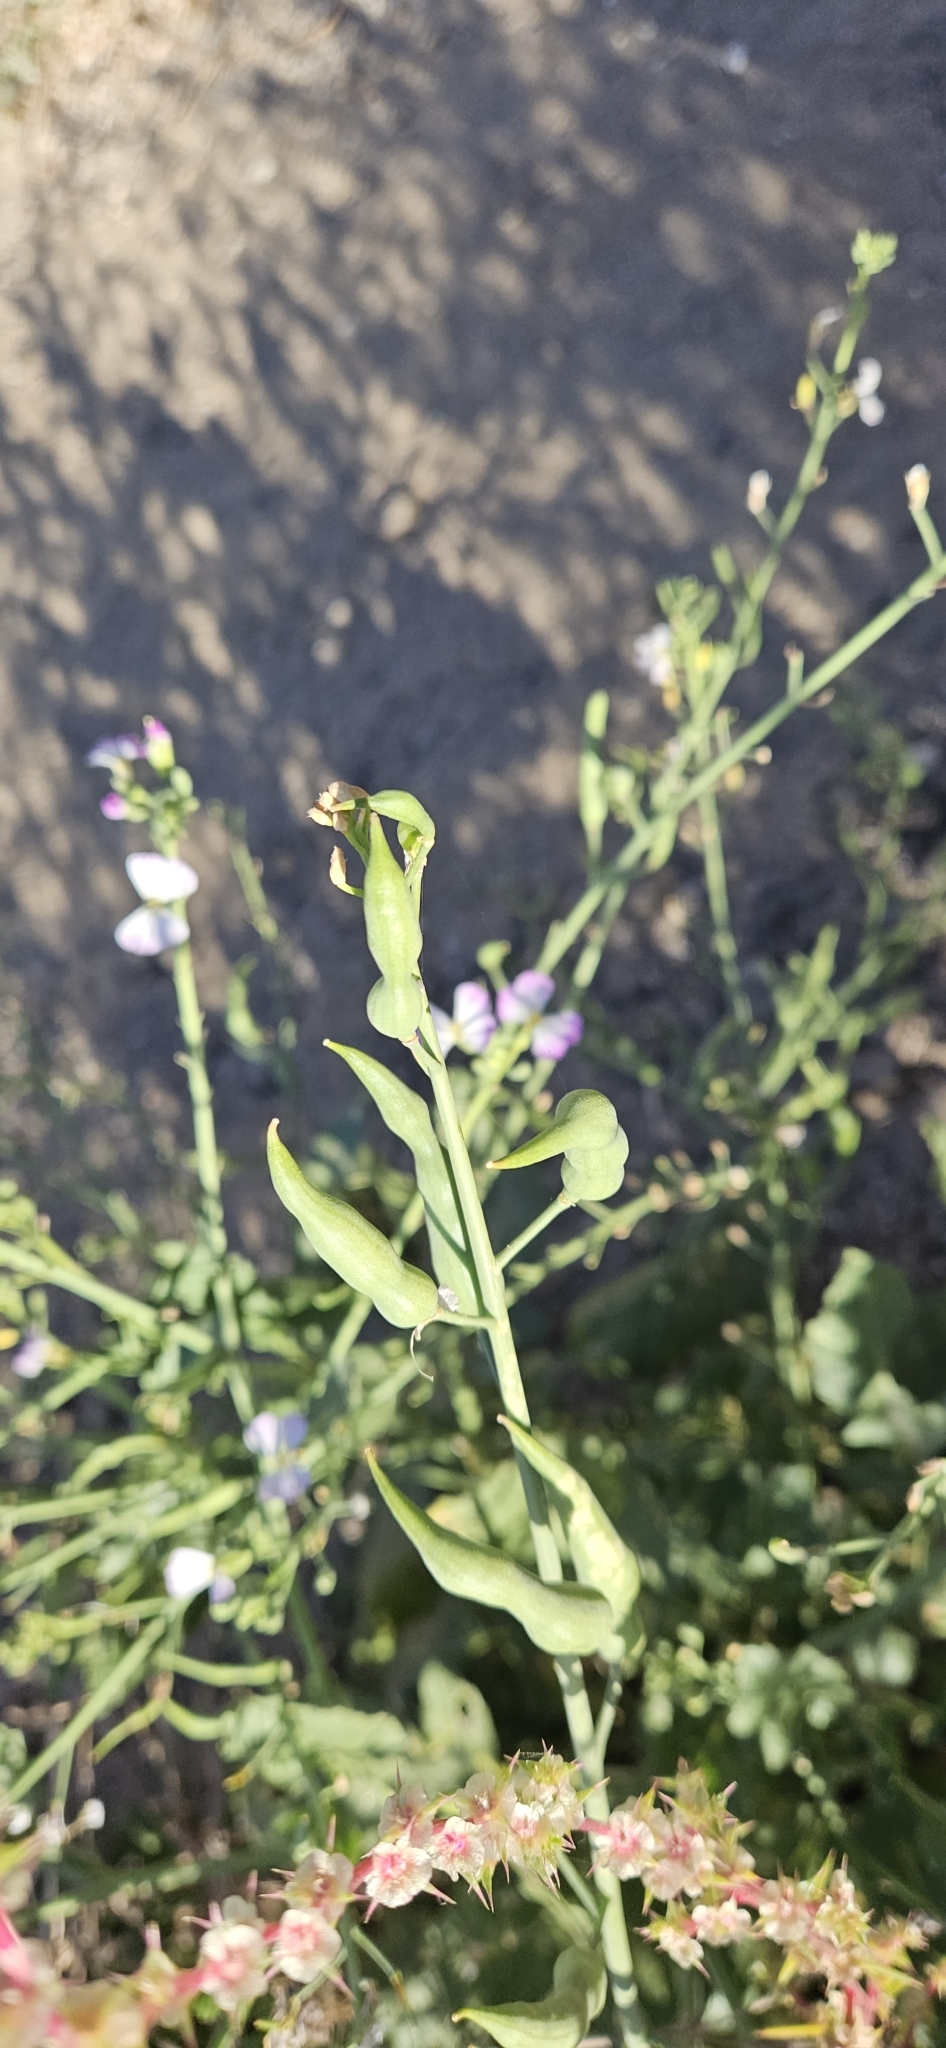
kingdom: Plantae
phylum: Tracheophyta
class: Magnoliopsida
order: Brassicales
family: Brassicaceae
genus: Raphanus
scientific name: Raphanus sativus
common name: Cultivated radish
